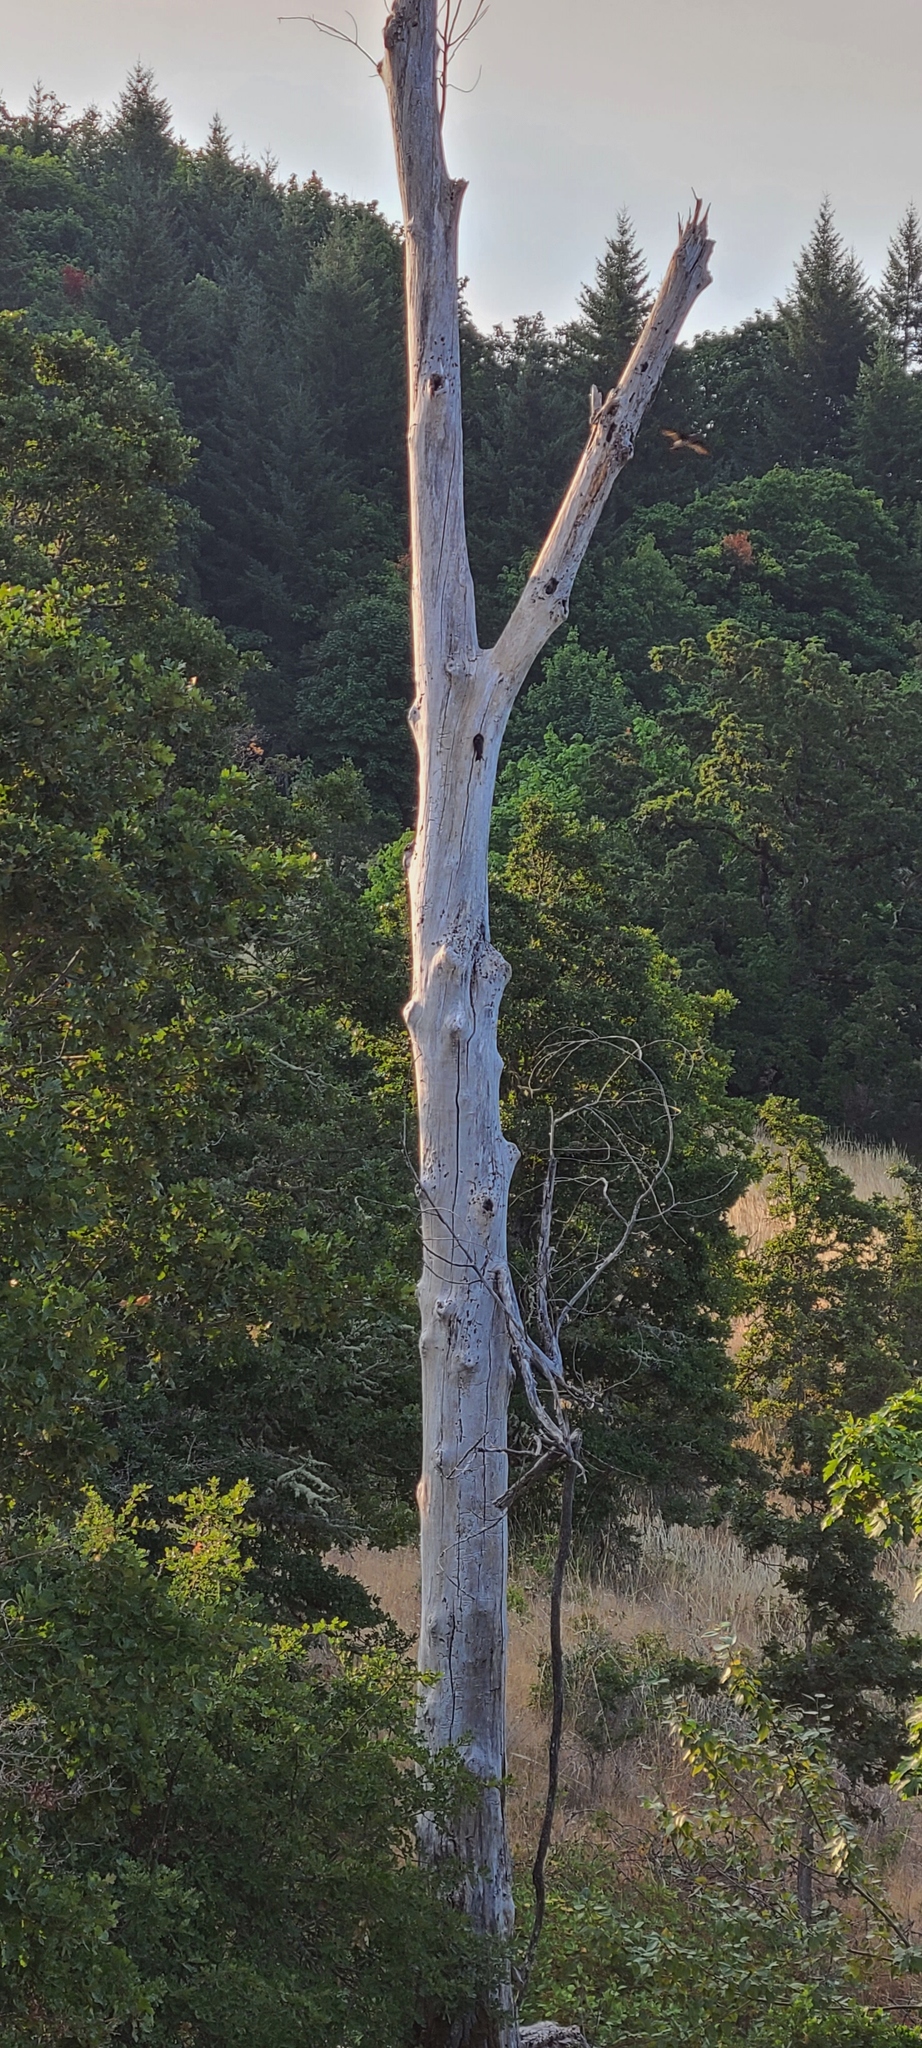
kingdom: Animalia
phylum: Chordata
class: Aves
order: Passeriformes
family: Hirundinidae
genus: Progne
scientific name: Progne subis
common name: Purple martin
